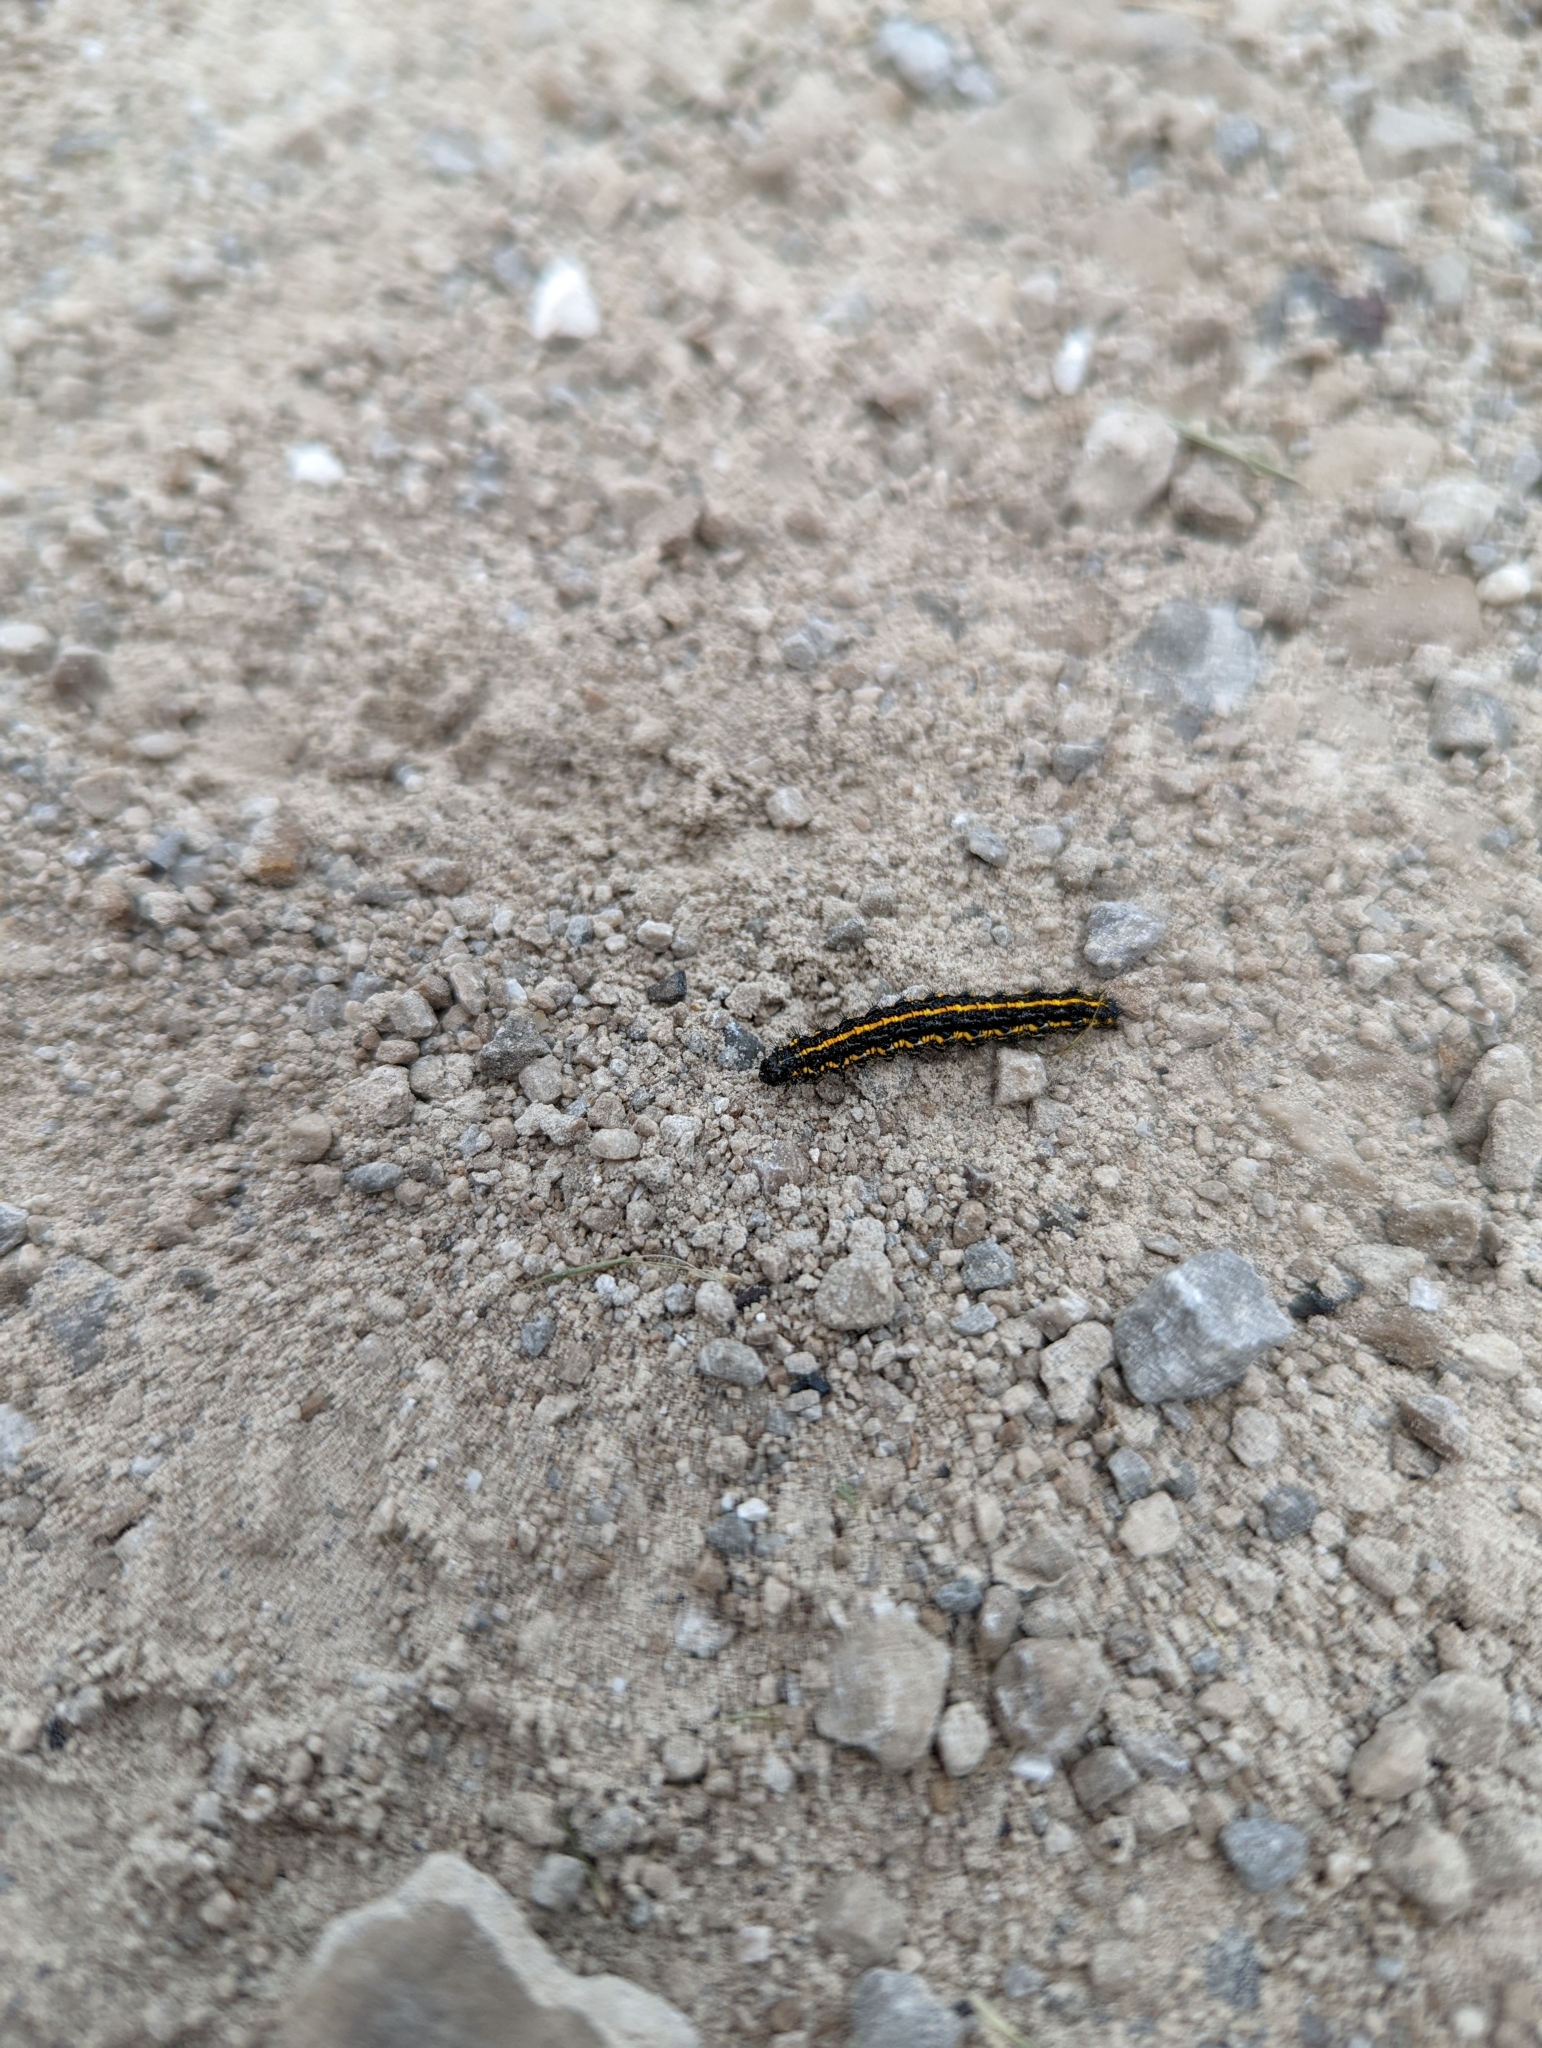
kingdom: Animalia
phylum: Arthropoda
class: Insecta
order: Lepidoptera
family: Erebidae
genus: Haploa
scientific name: Haploa
